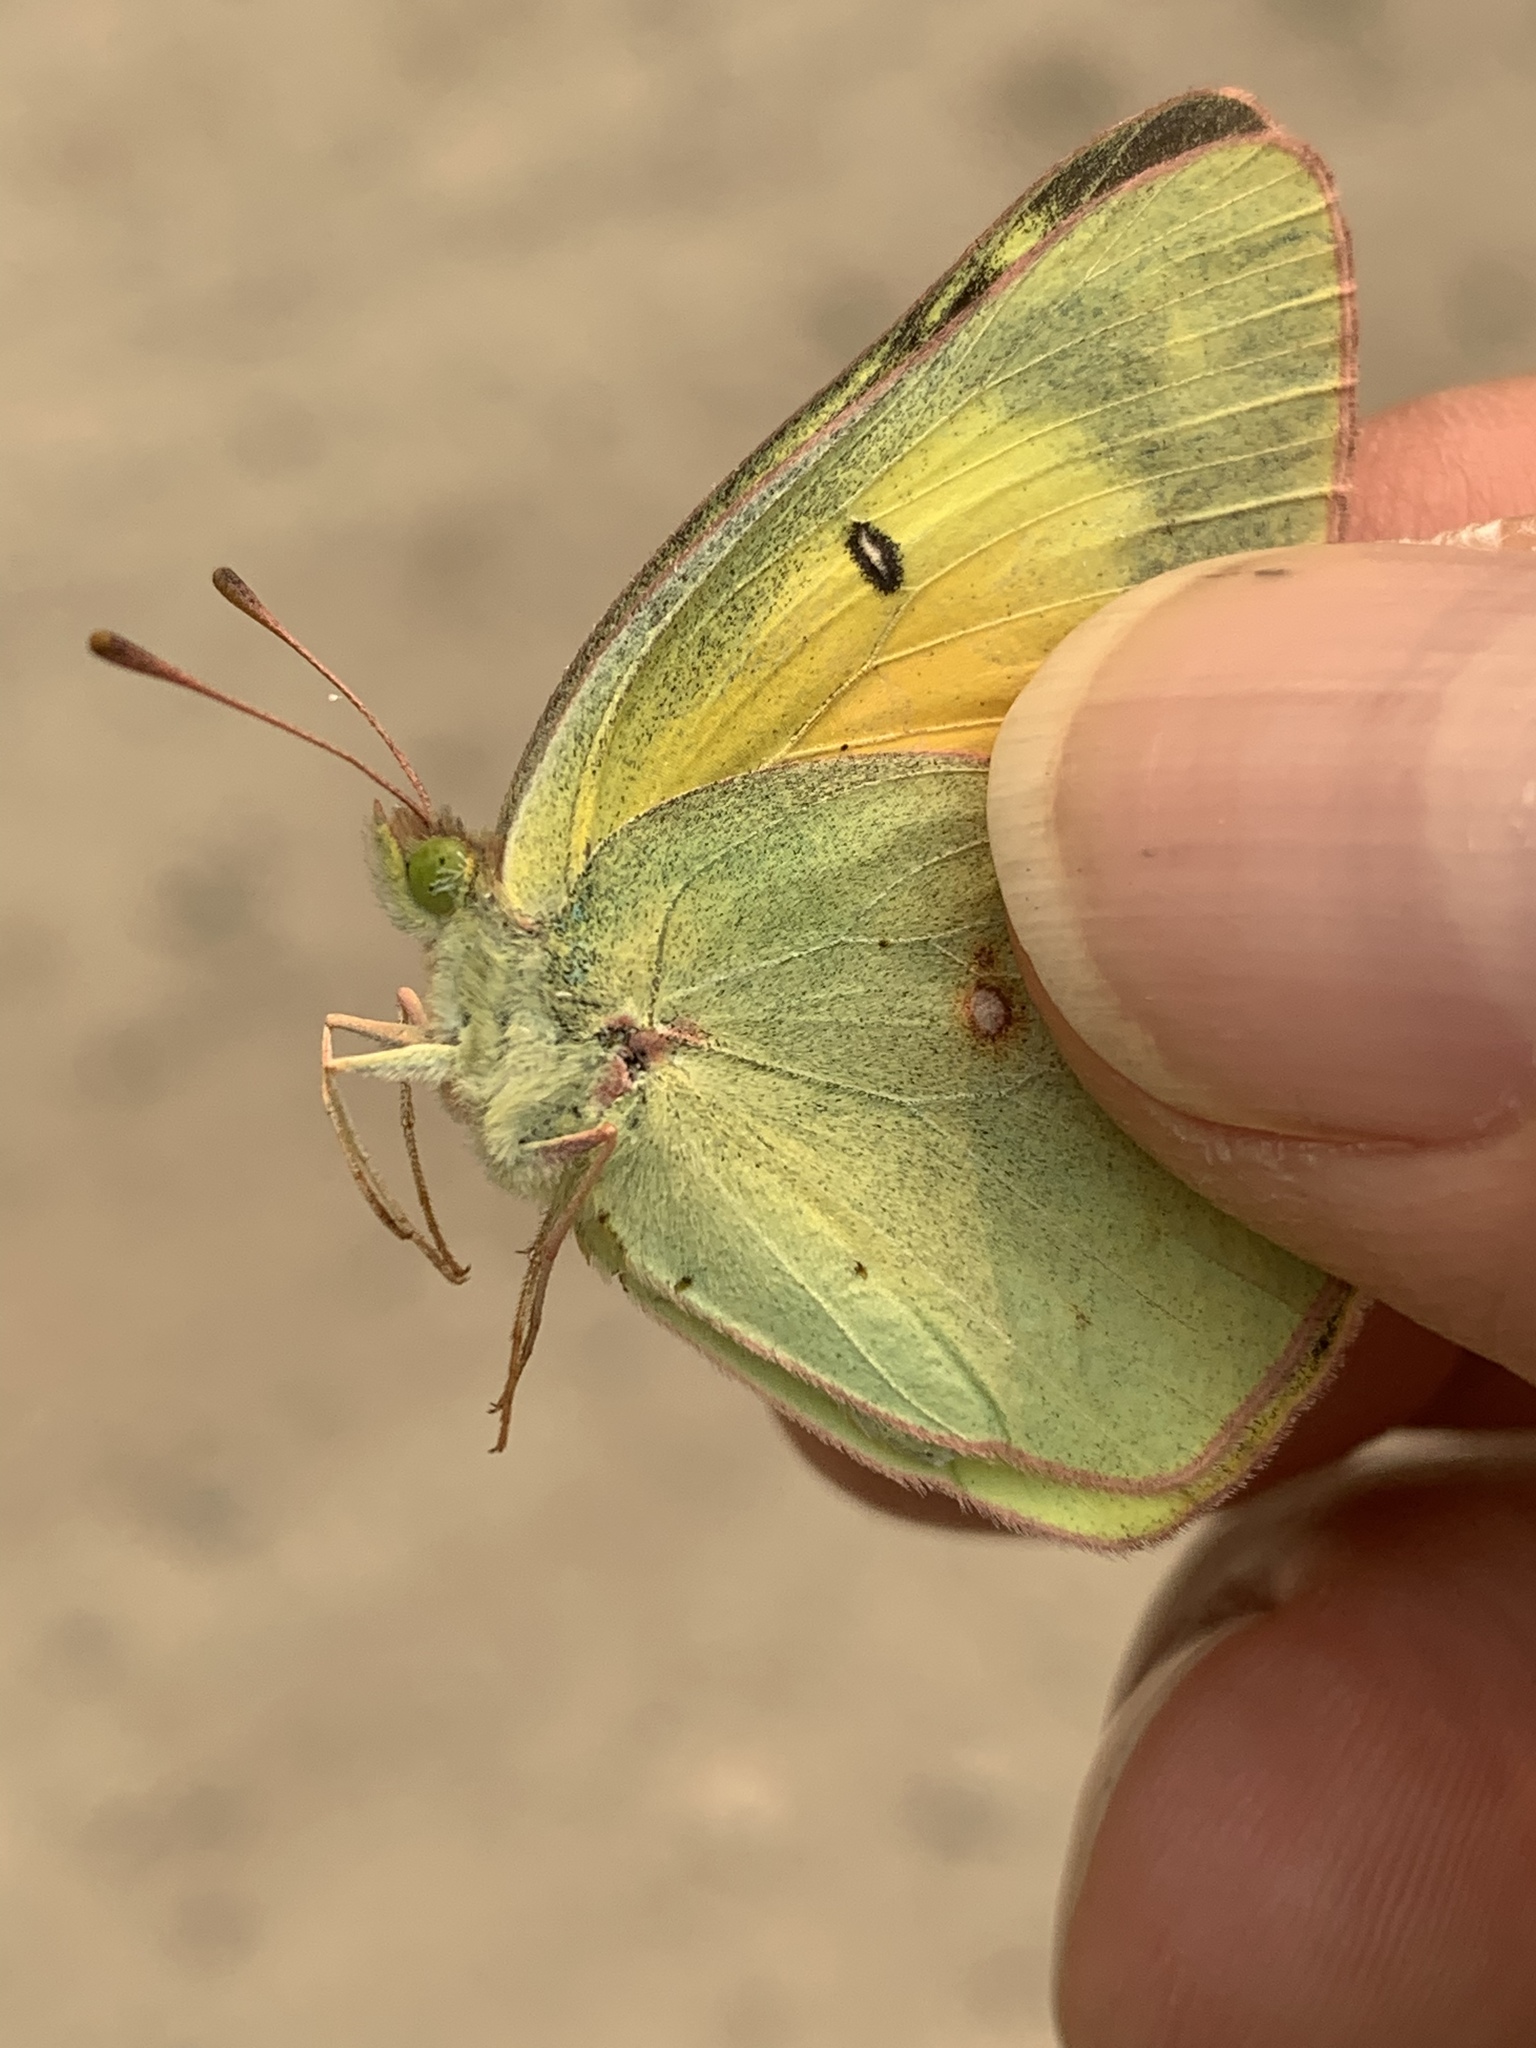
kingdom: Animalia
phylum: Arthropoda
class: Insecta
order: Lepidoptera
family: Pieridae
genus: Colias
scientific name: Colias eurytheme
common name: Alfalfa butterfly
